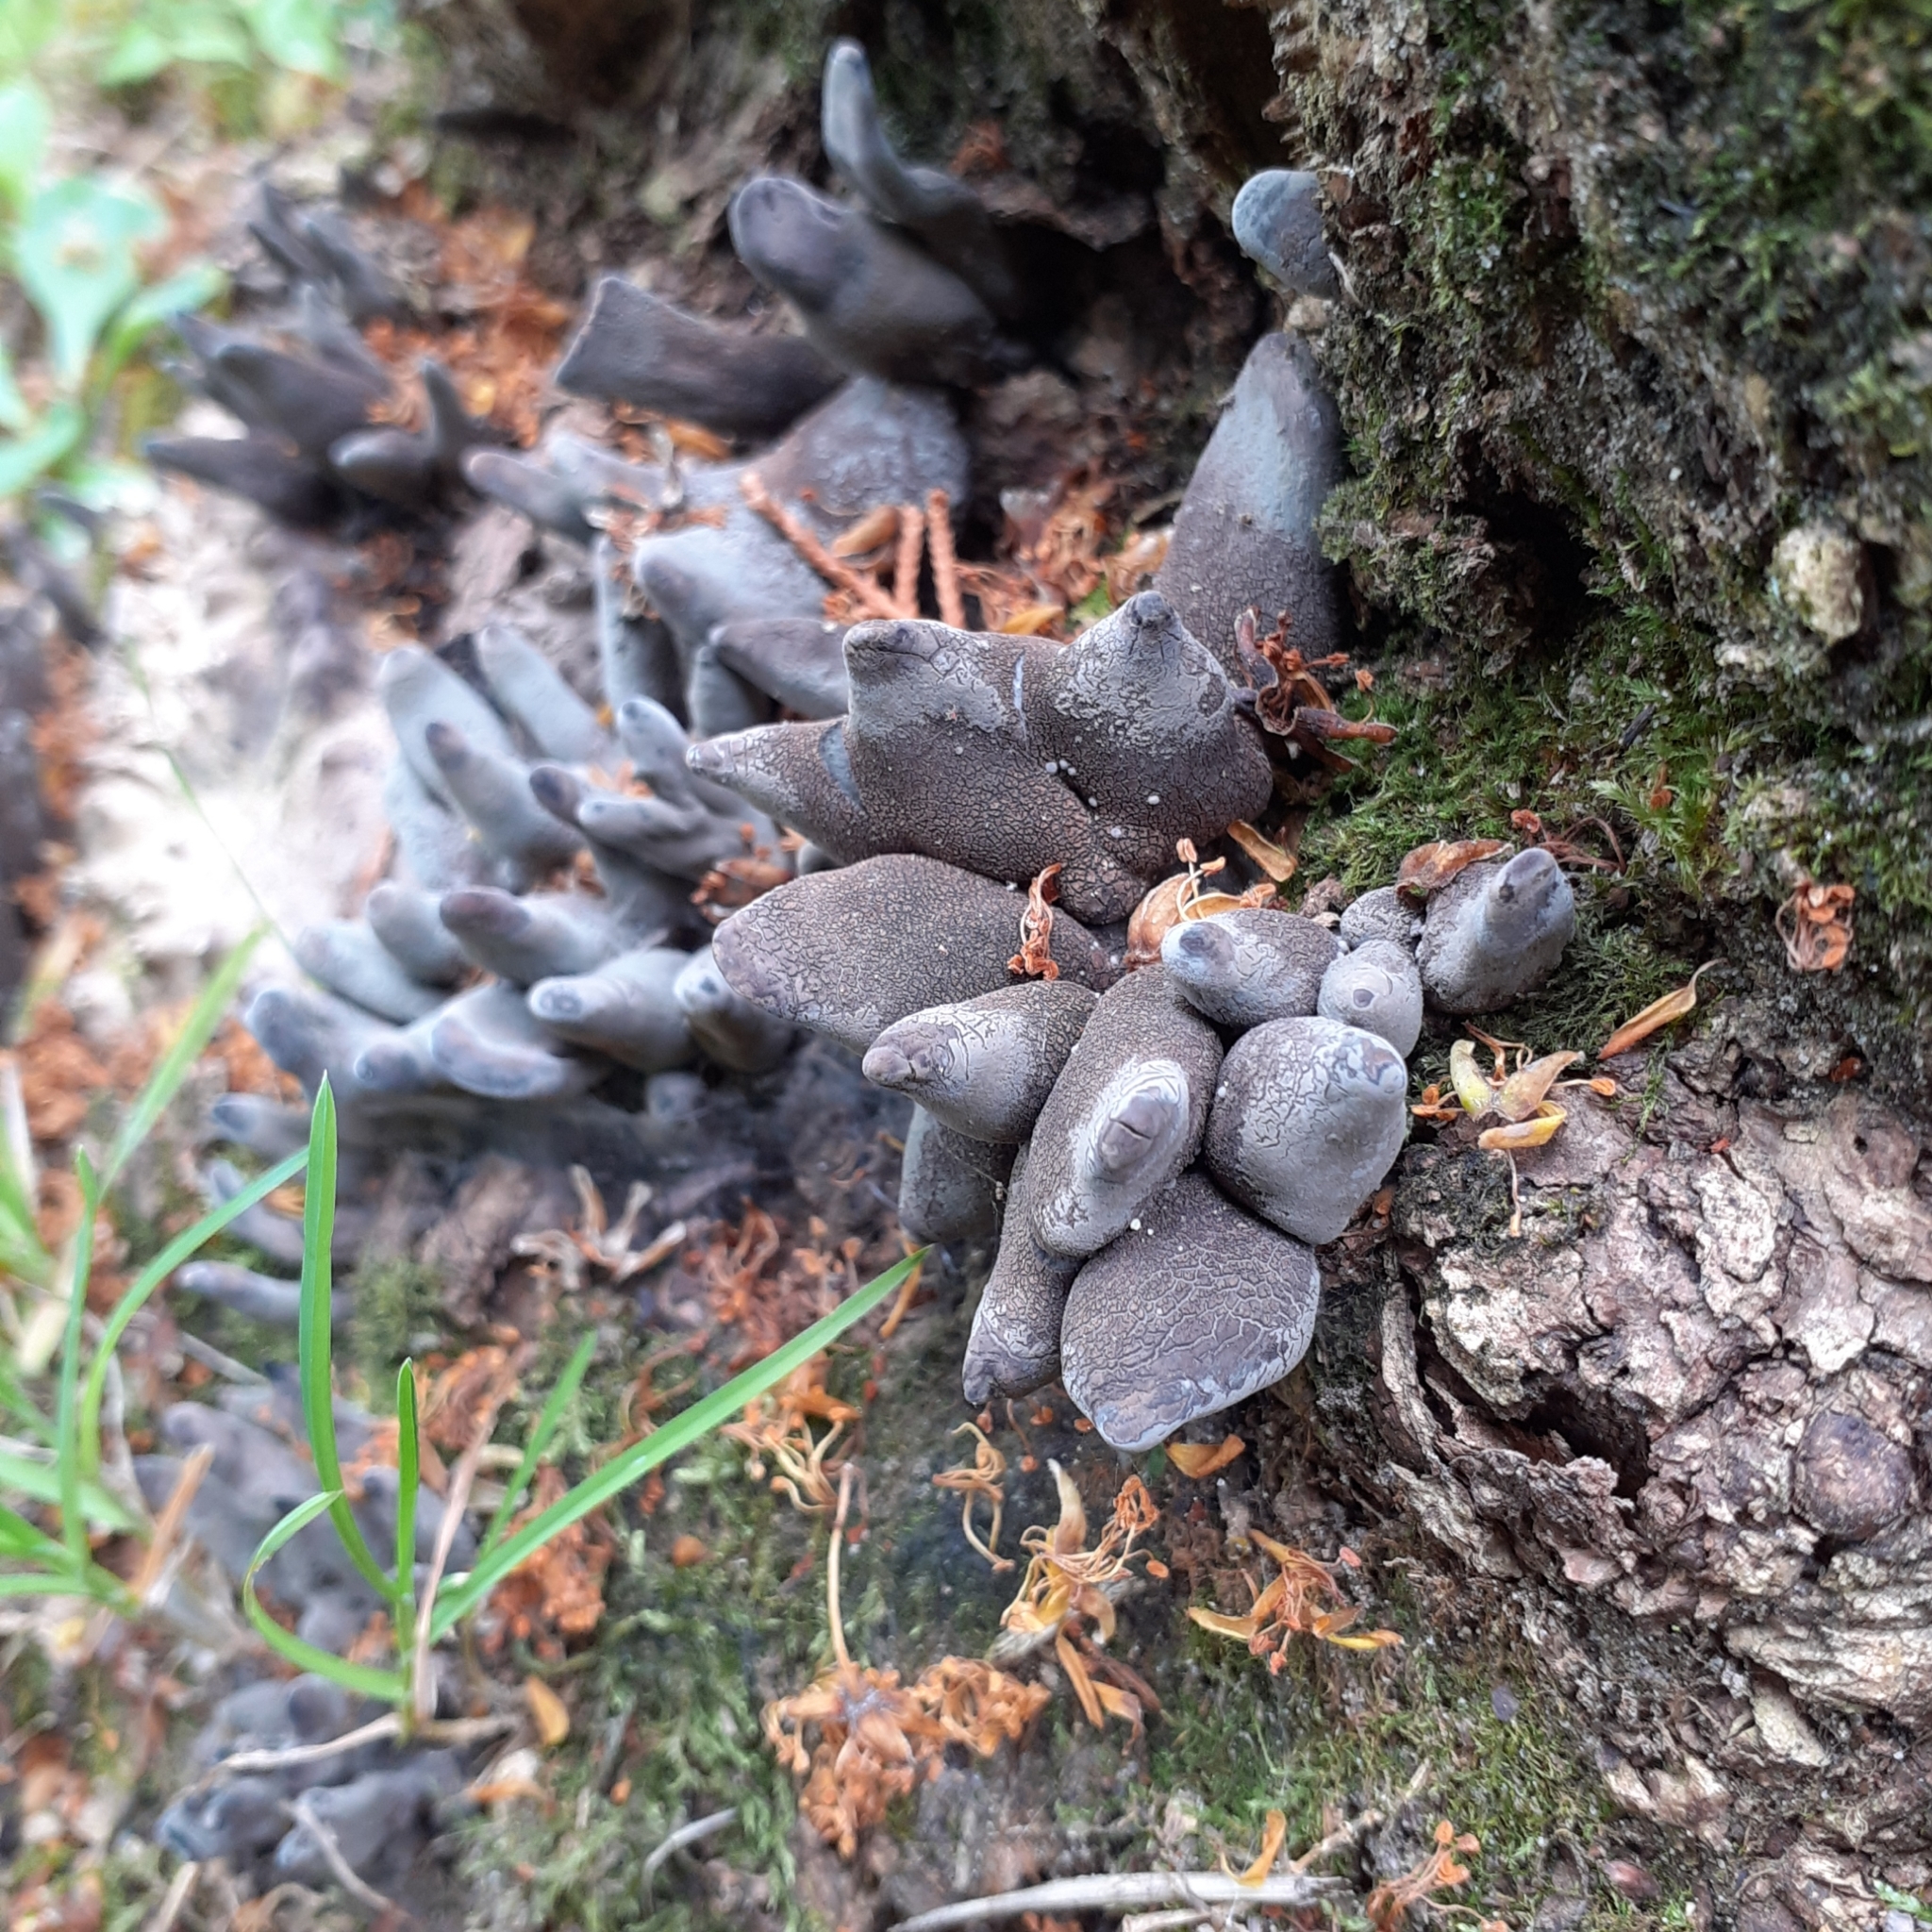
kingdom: Fungi
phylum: Ascomycota
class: Sordariomycetes
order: Xylariales
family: Xylariaceae
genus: Xylaria
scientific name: Xylaria polymorpha
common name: Dead man's fingers
